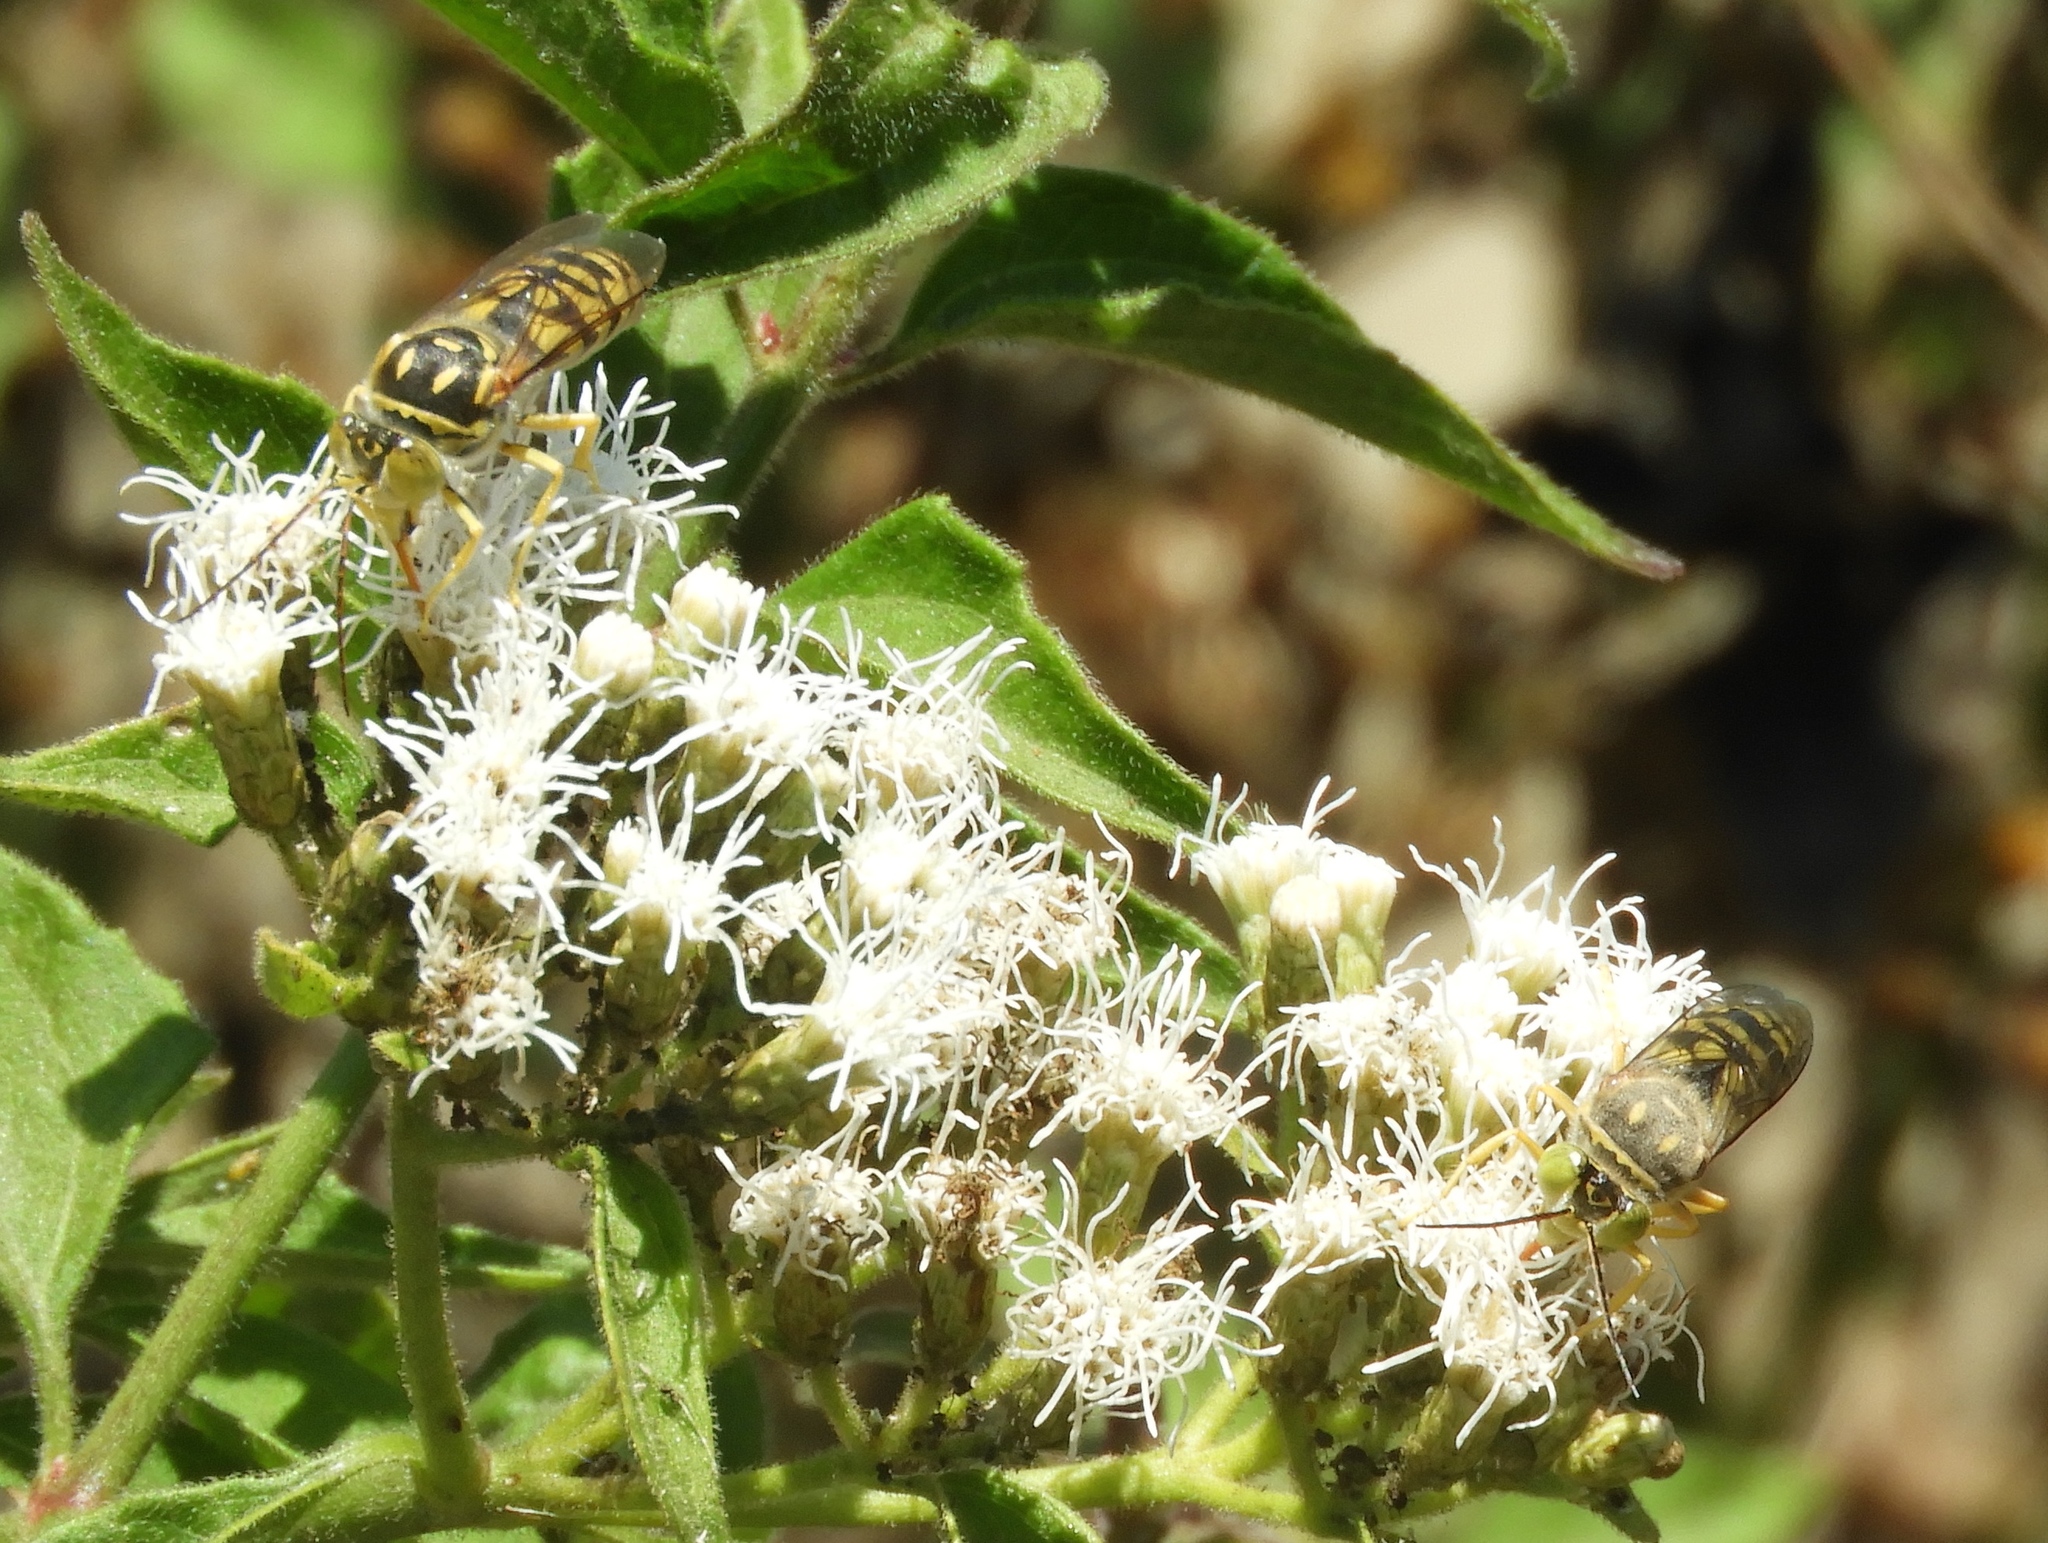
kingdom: Animalia
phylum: Arthropoda
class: Insecta
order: Hymenoptera
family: Crabronidae
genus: Steniolia
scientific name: Steniolia
